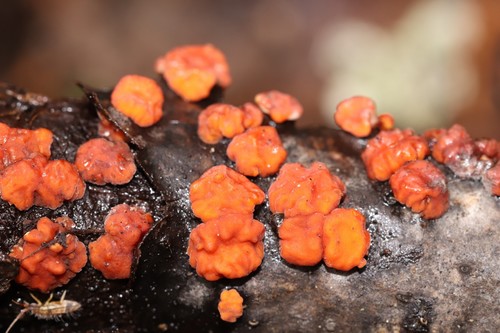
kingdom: Fungi
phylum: Basidiomycota
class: Agaricomycetes
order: Russulales
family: Peniophoraceae
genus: Peniophora
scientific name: Peniophora rufa
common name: Red tree brain fungus
